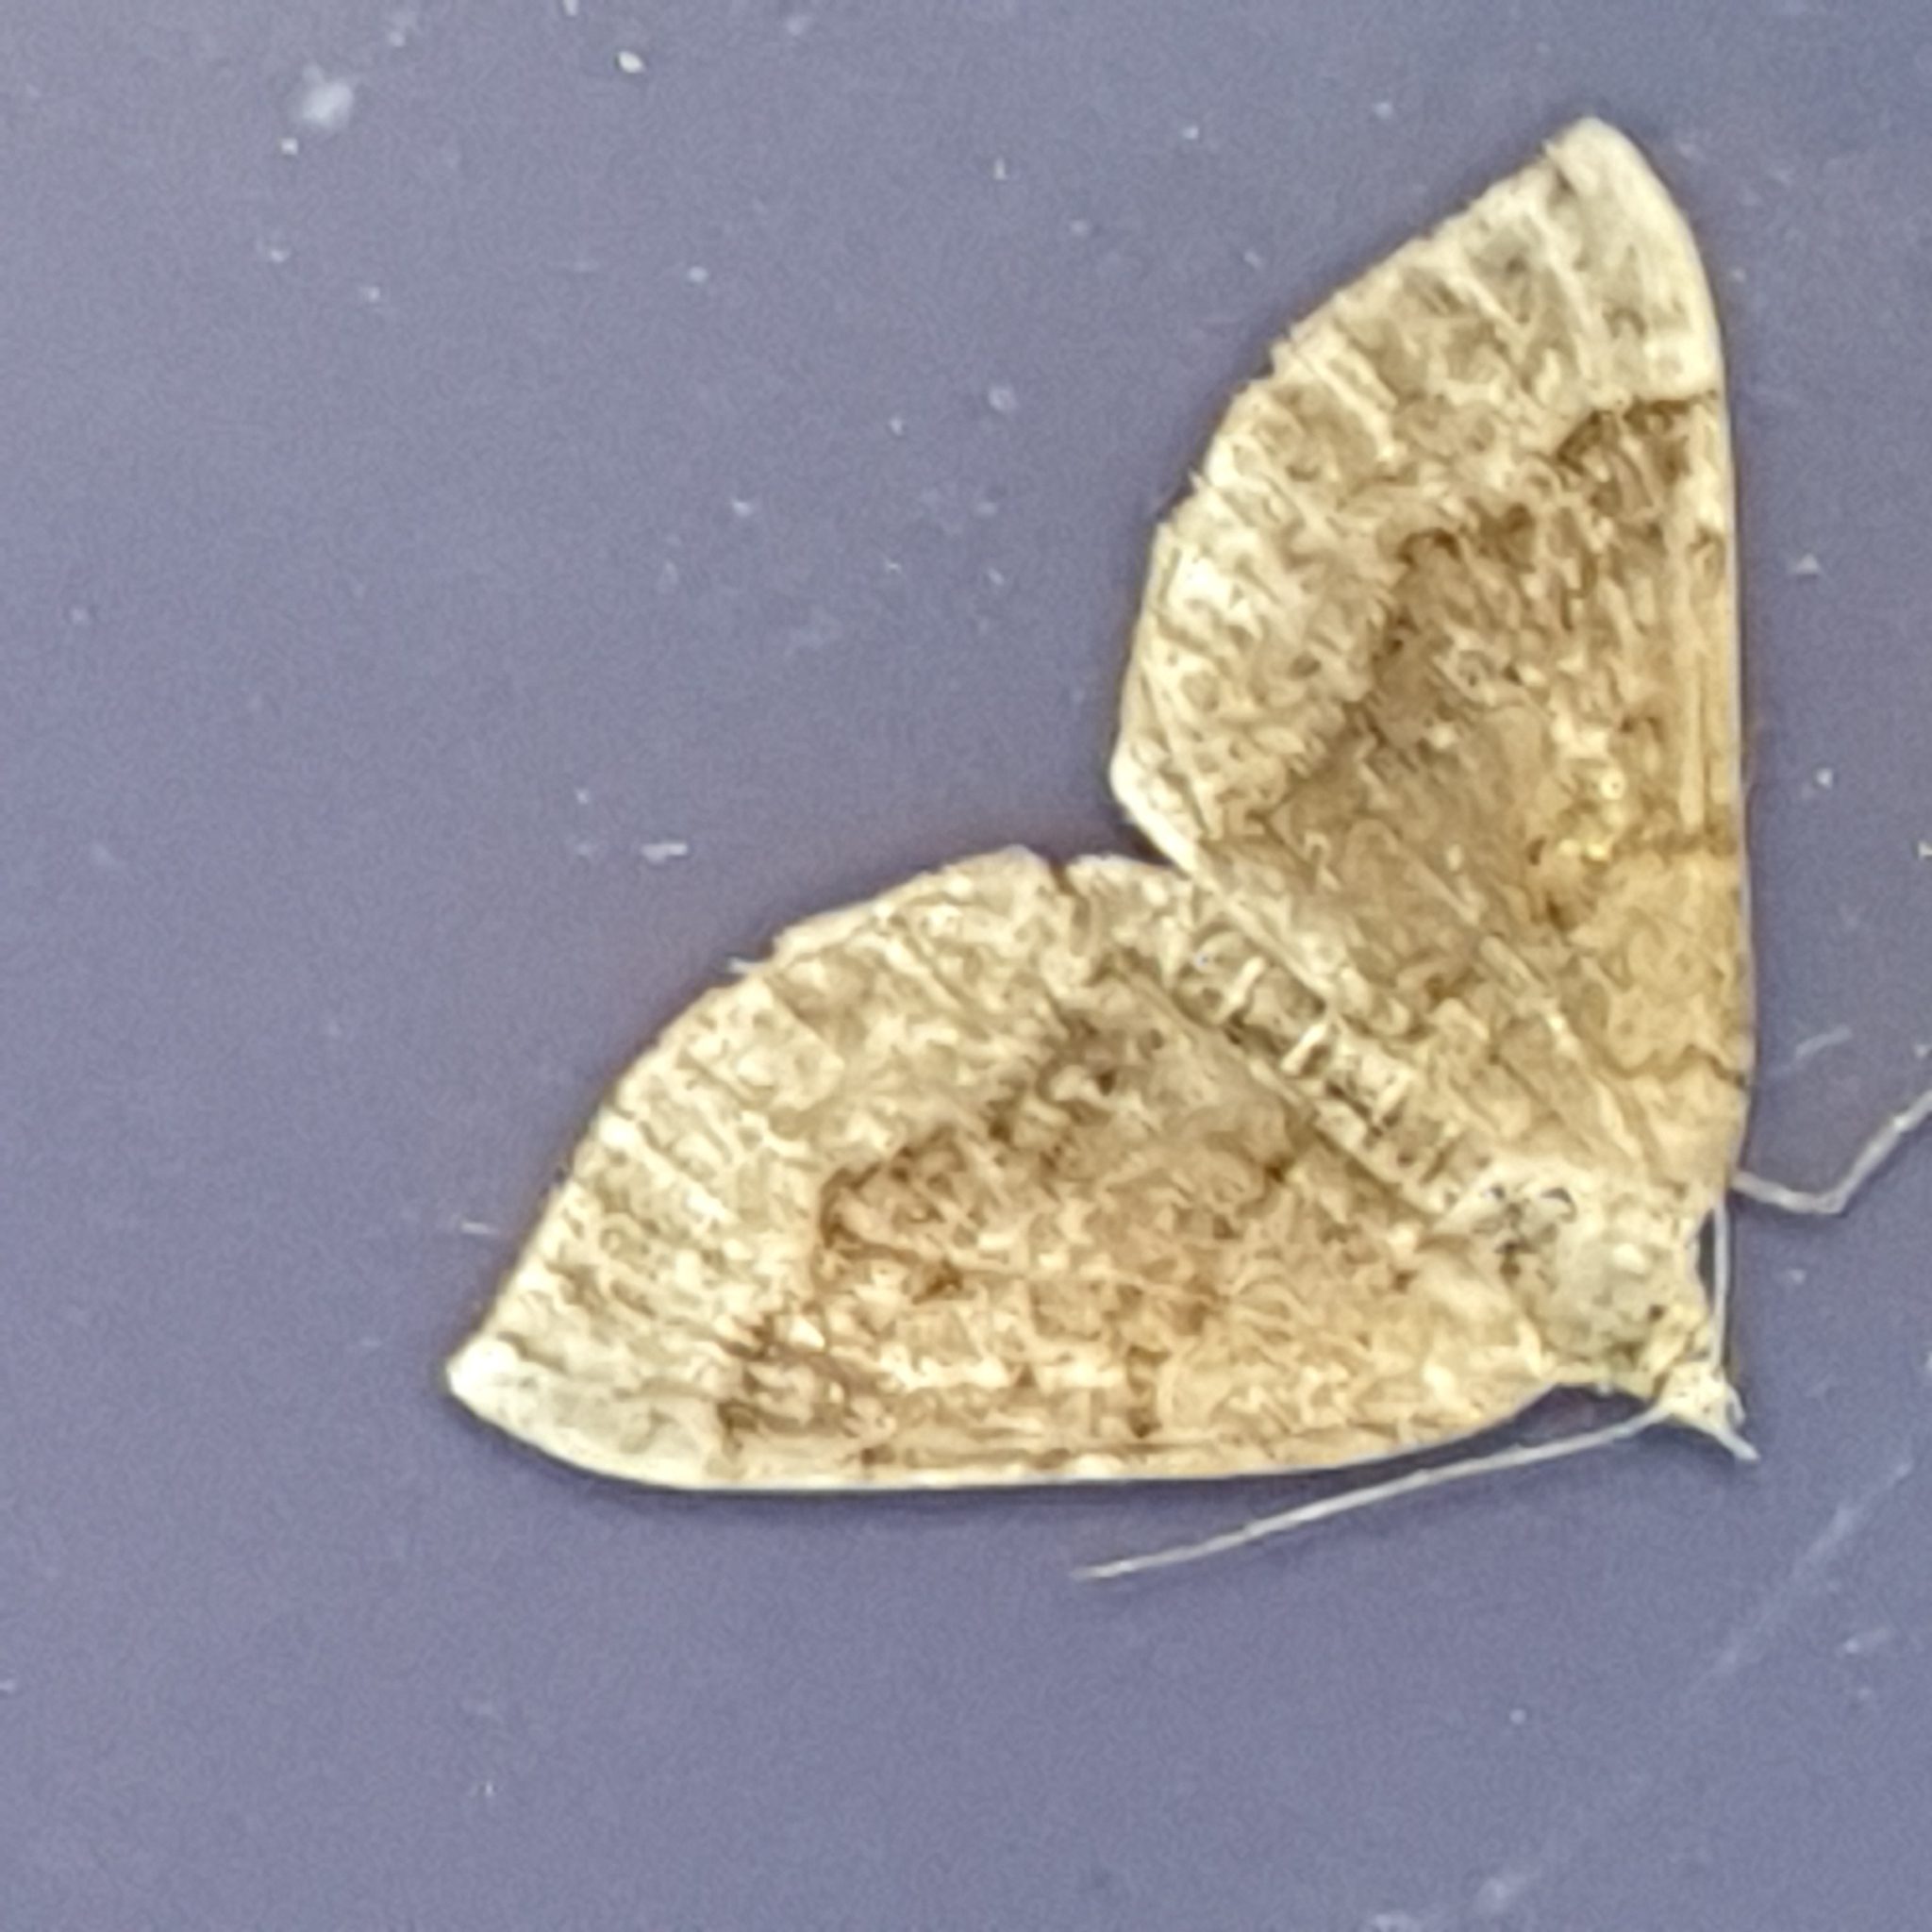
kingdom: Animalia
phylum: Arthropoda
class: Insecta
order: Lepidoptera
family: Geometridae
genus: Scotopteryx
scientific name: Scotopteryx chenopodiata
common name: Shaded broad-bar
